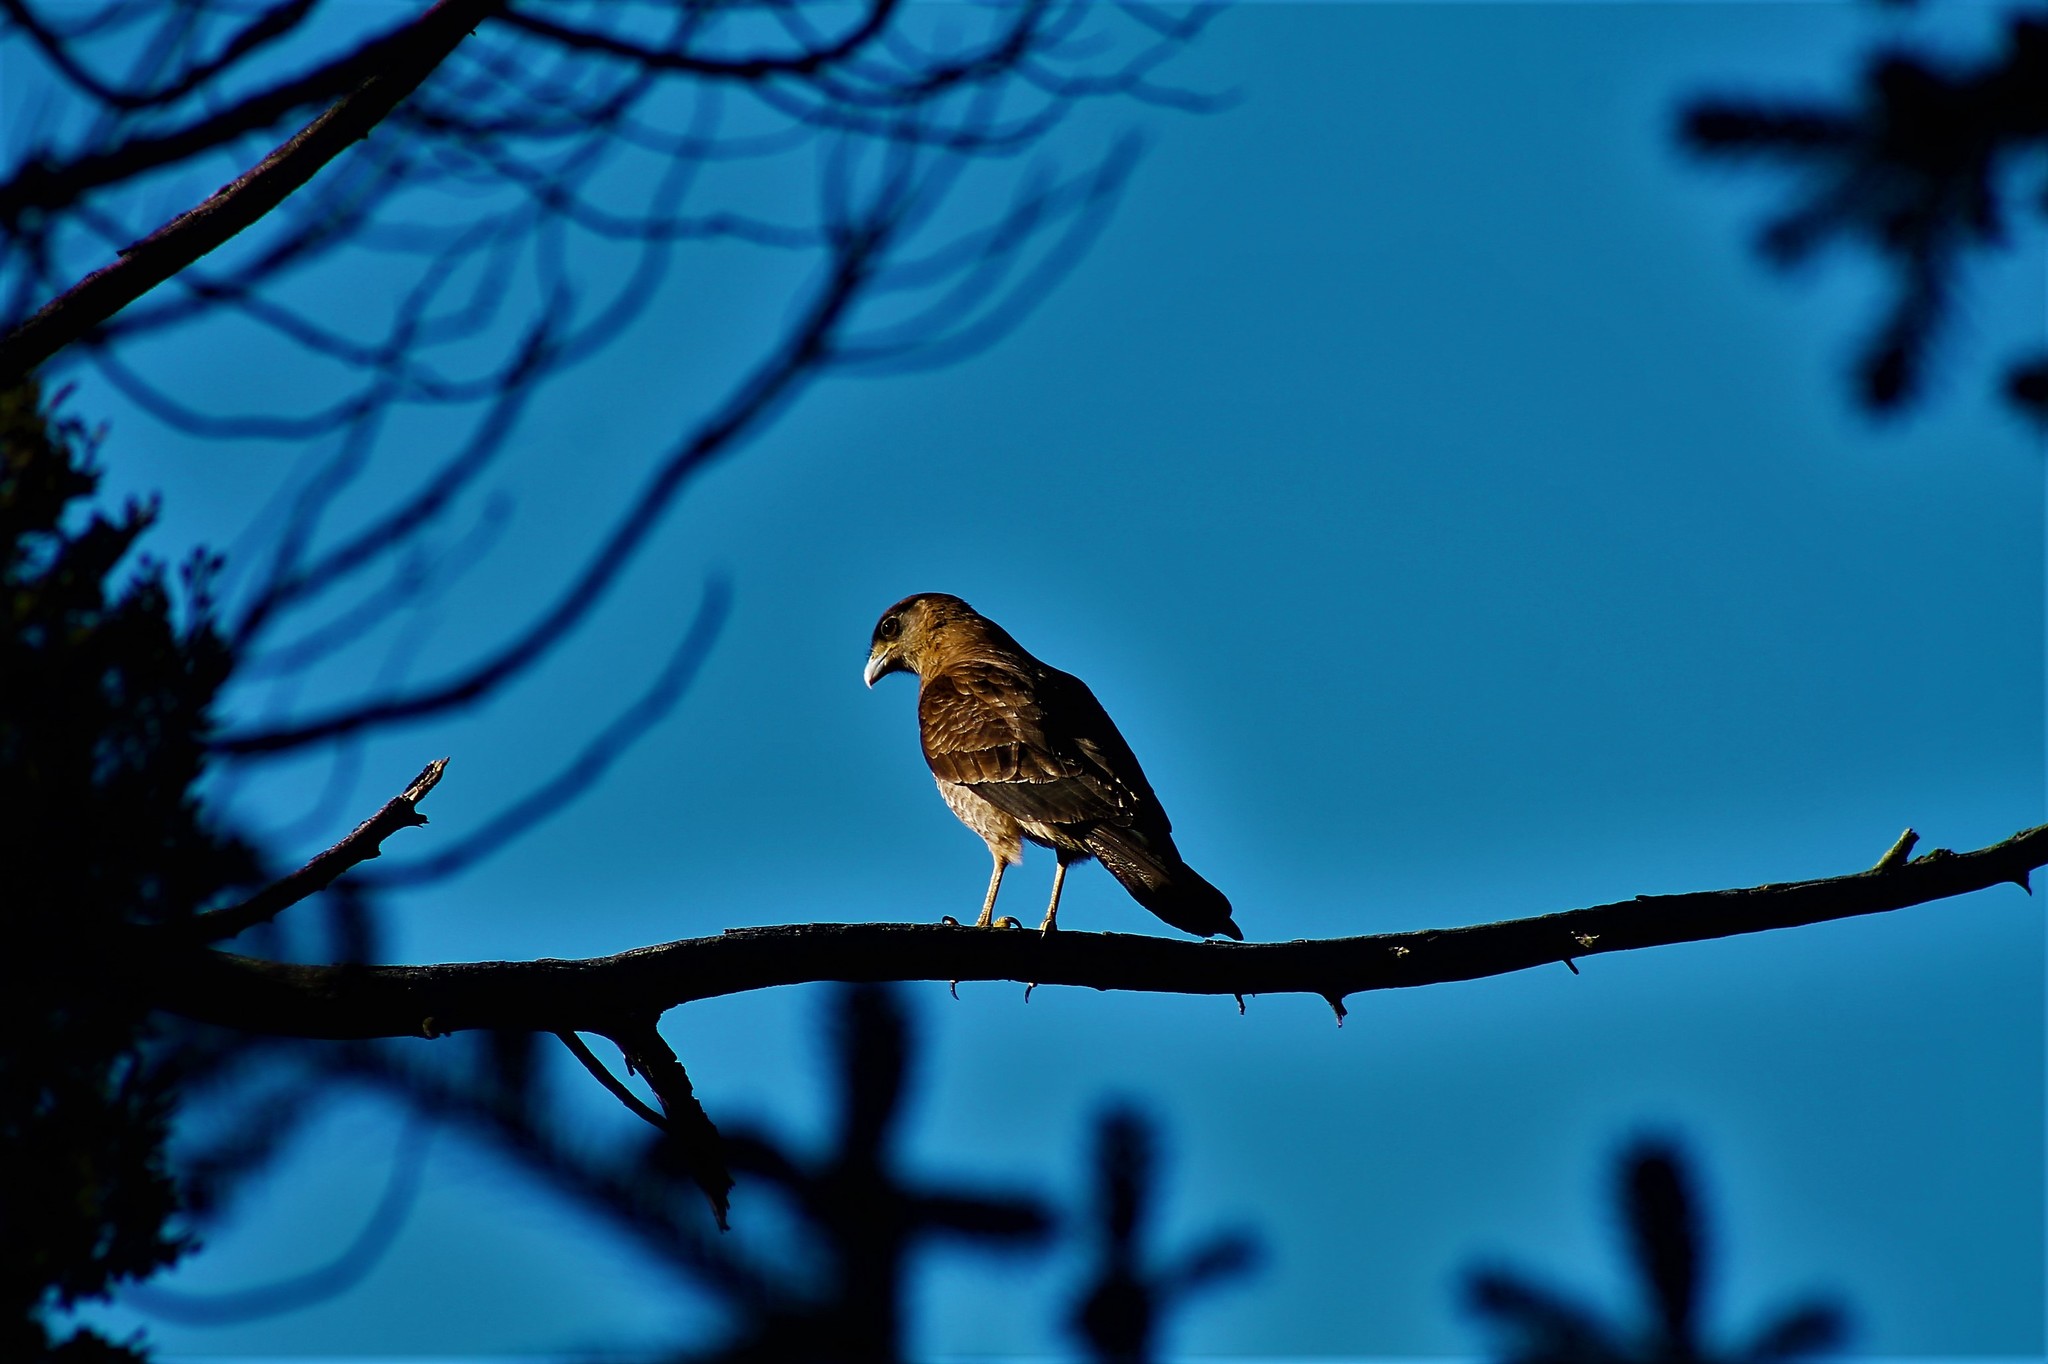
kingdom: Animalia
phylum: Chordata
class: Aves
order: Falconiformes
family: Falconidae
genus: Daptrius
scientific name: Daptrius
